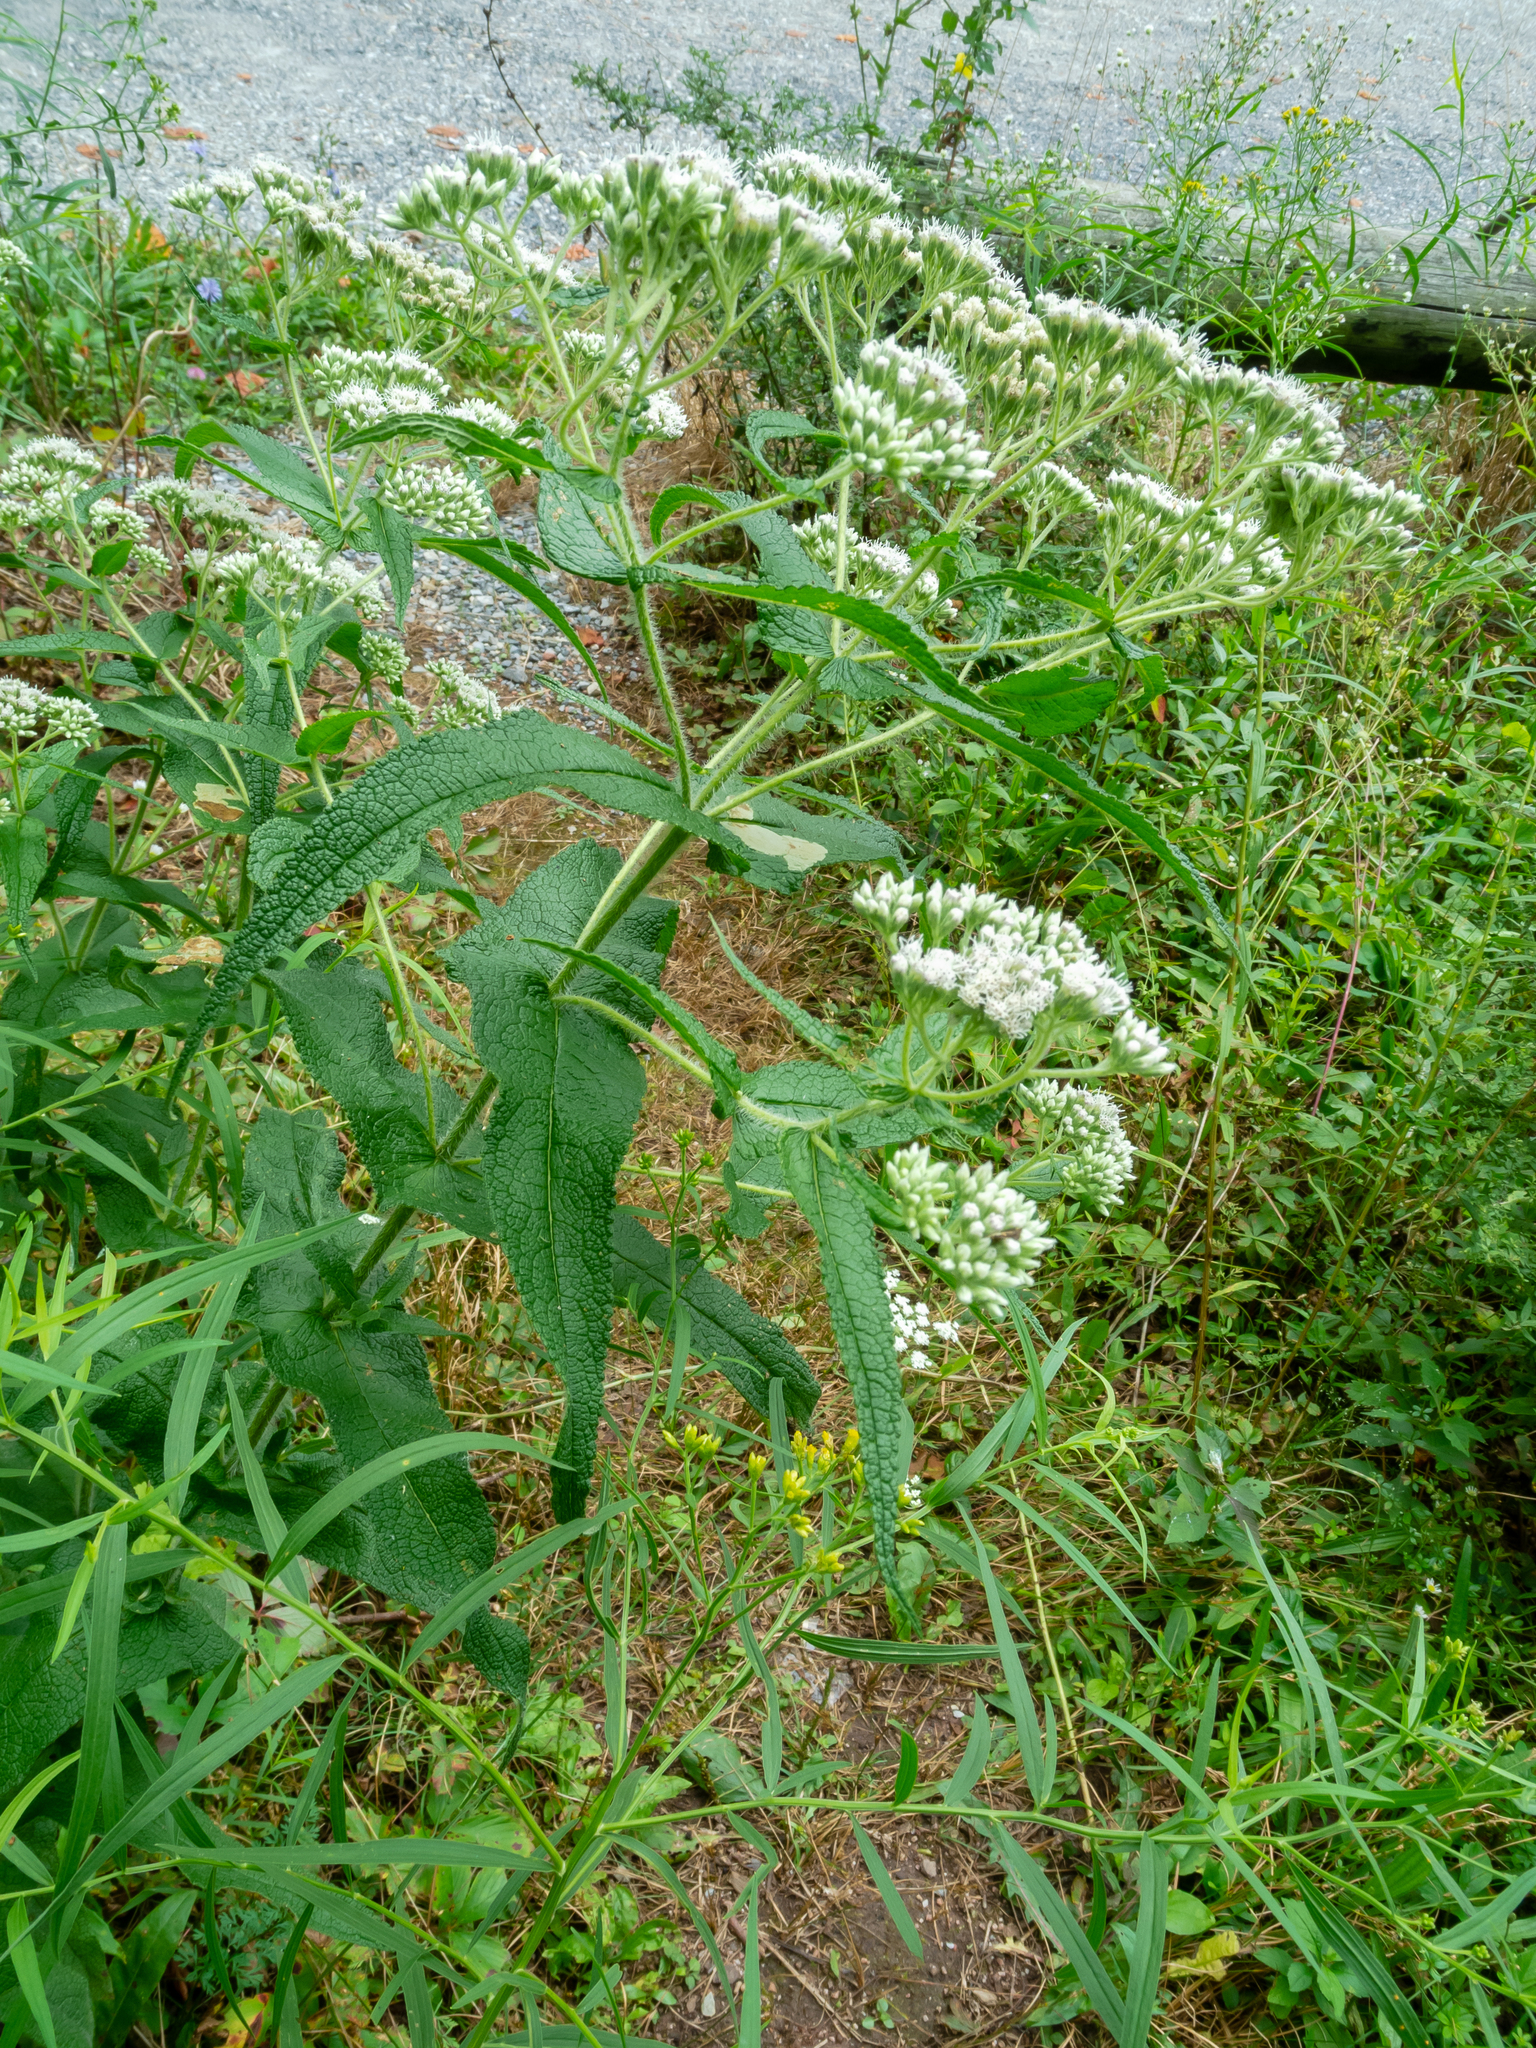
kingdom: Plantae
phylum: Tracheophyta
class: Magnoliopsida
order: Asterales
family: Asteraceae
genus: Eupatorium
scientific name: Eupatorium perfoliatum
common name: Boneset
